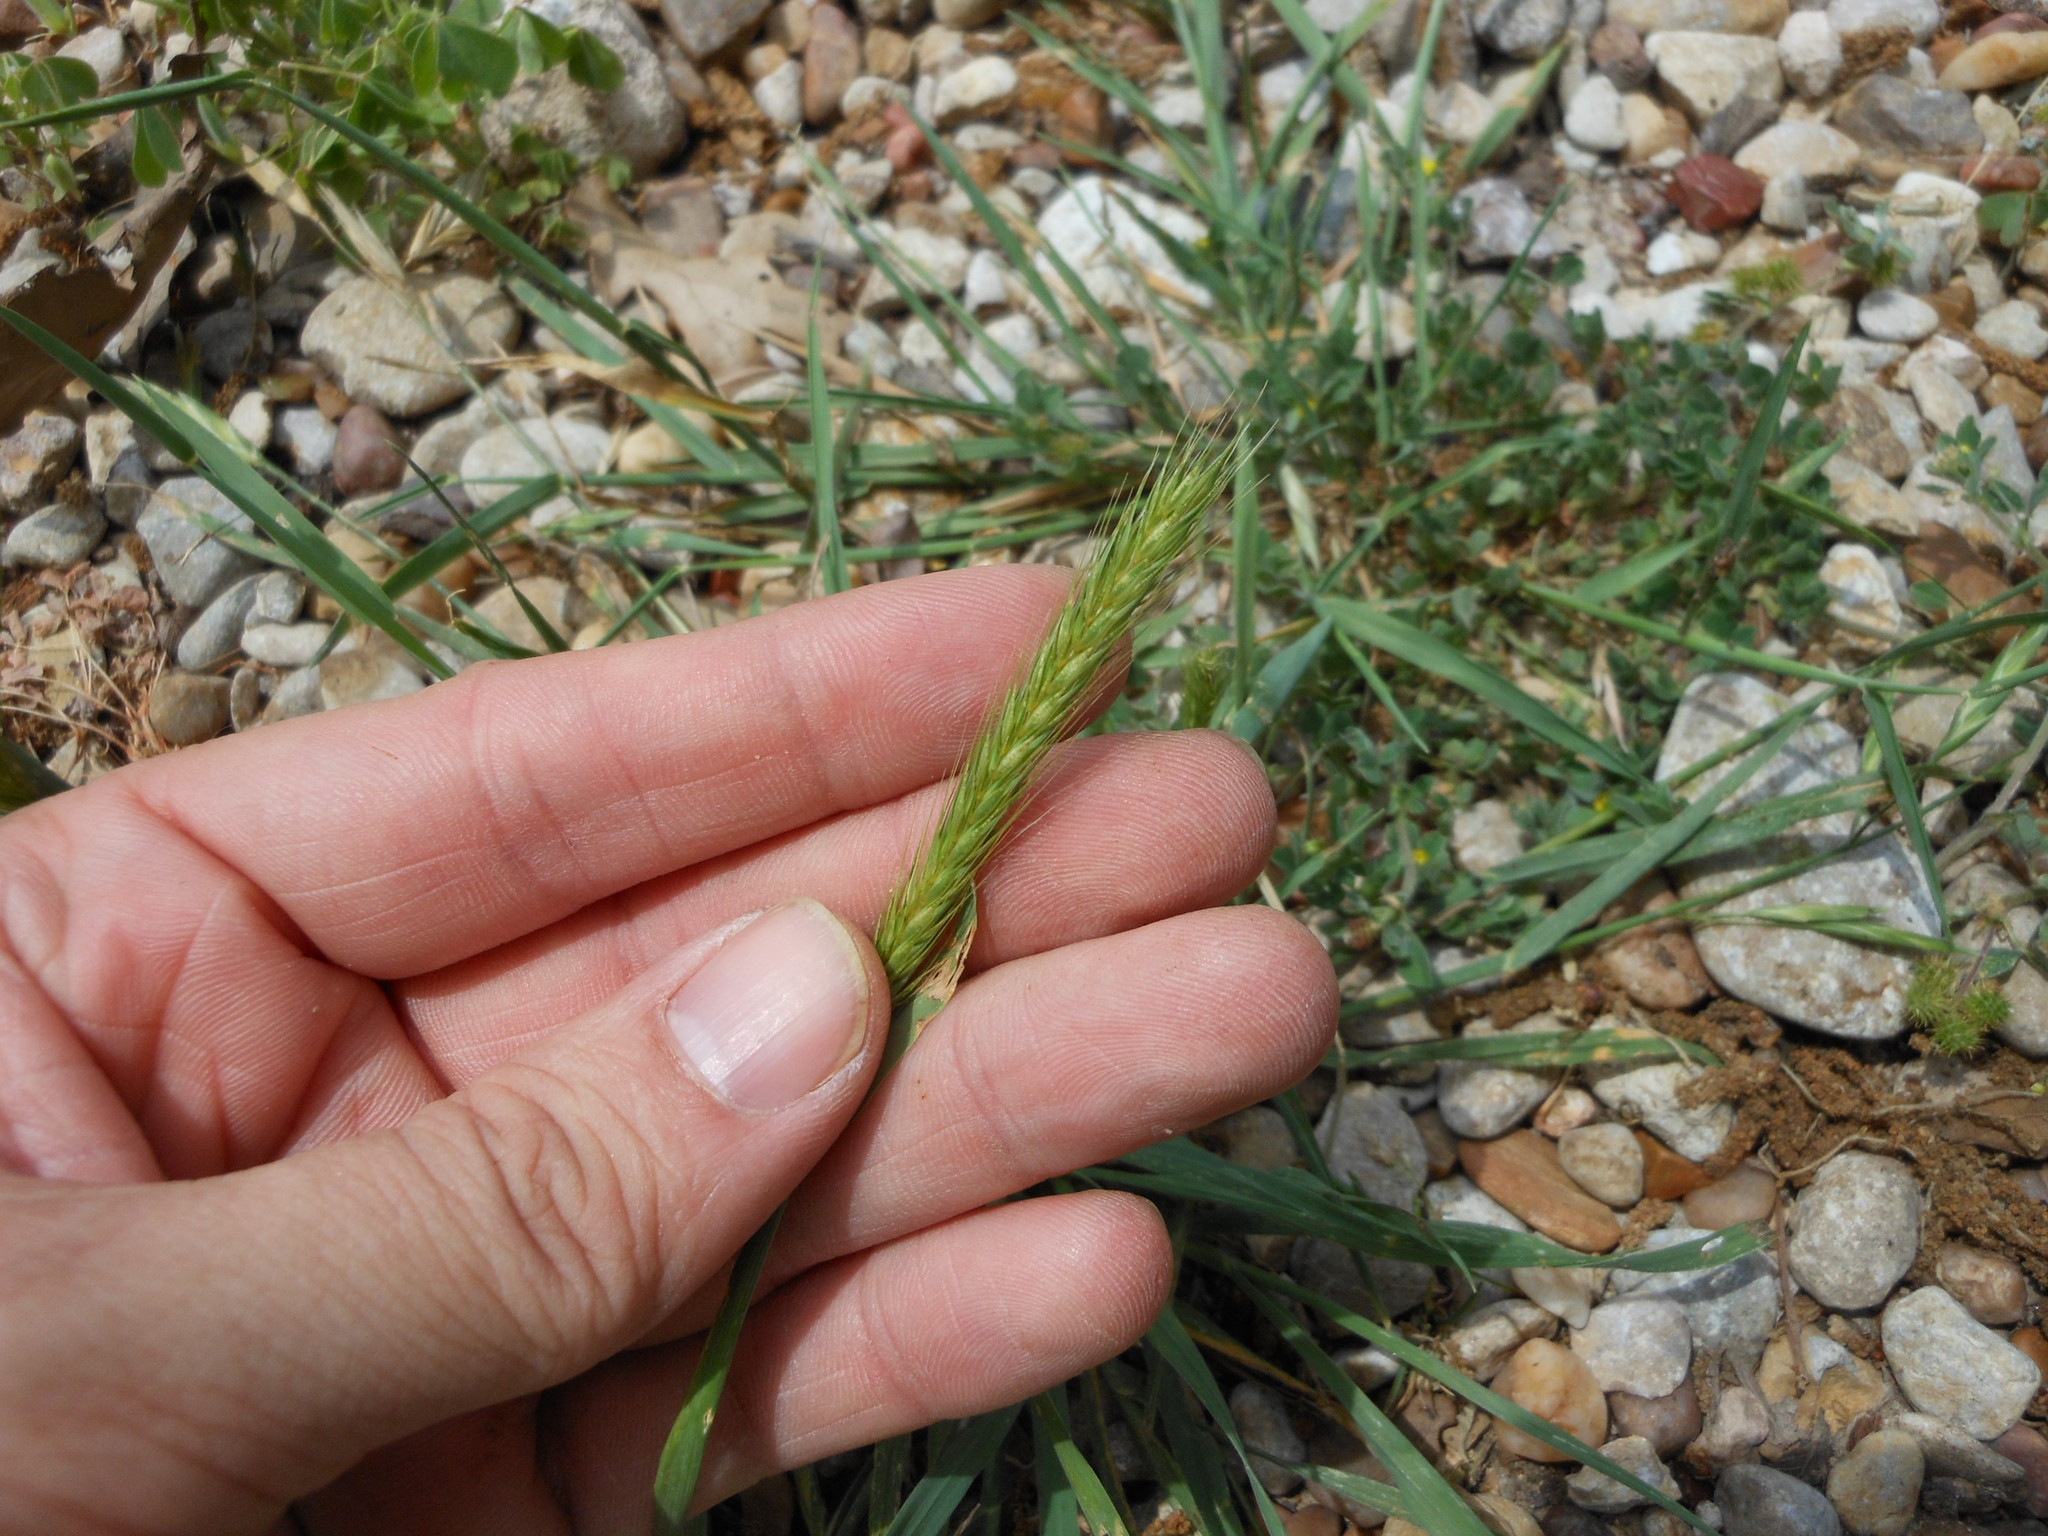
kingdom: Plantae
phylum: Tracheophyta
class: Liliopsida
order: Poales
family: Poaceae
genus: Hordeum
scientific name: Hordeum pusillum
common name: Little barley
